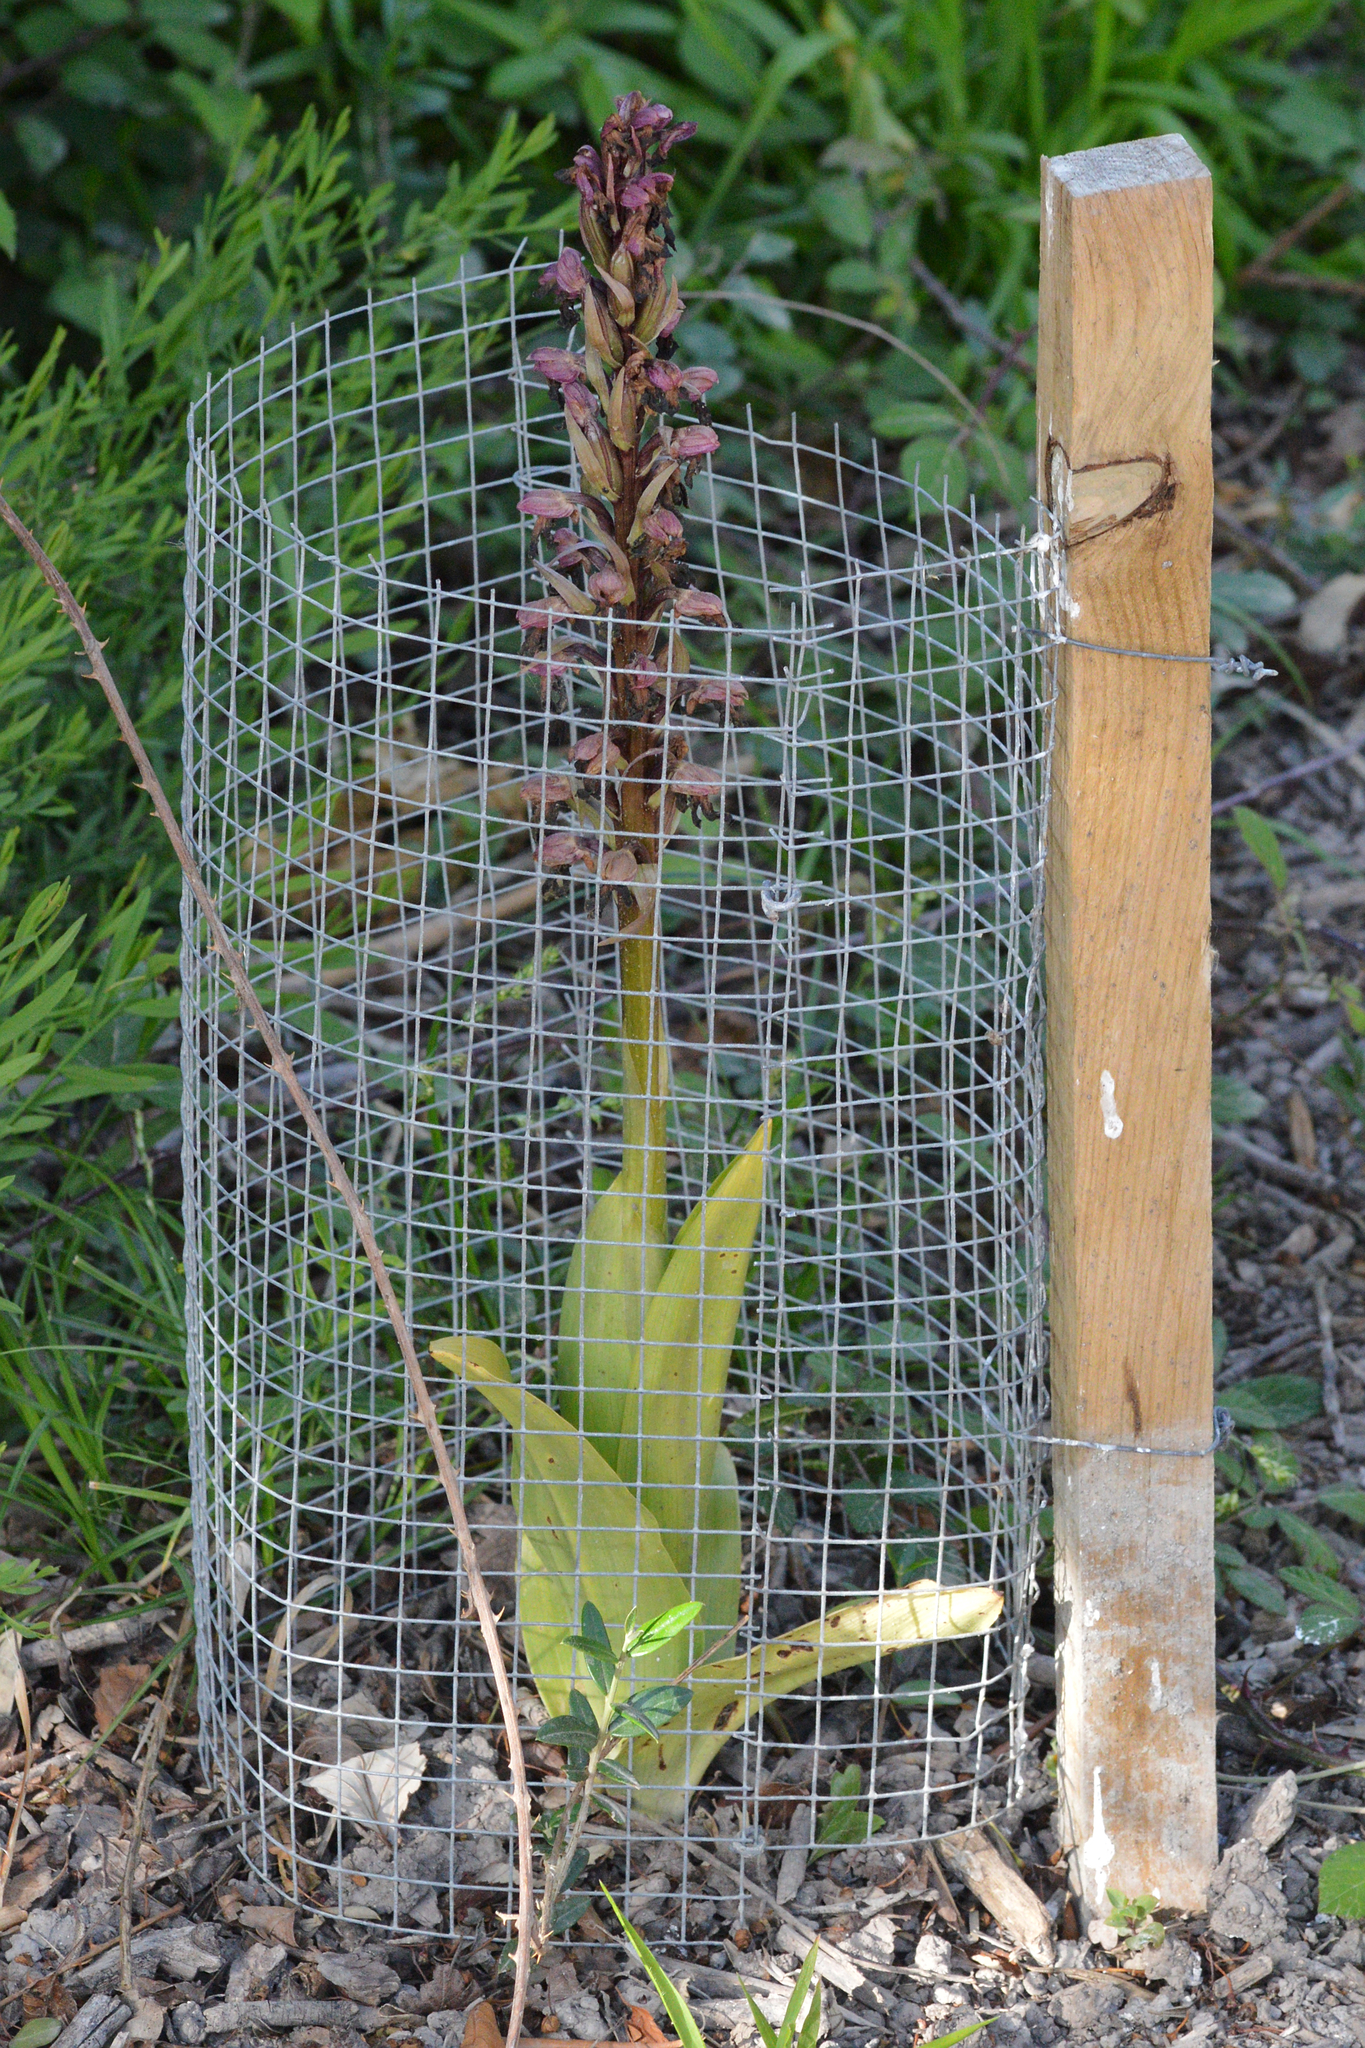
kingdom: Plantae
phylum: Tracheophyta
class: Liliopsida
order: Asparagales
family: Orchidaceae
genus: Himantoglossum
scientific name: Himantoglossum robertianum
